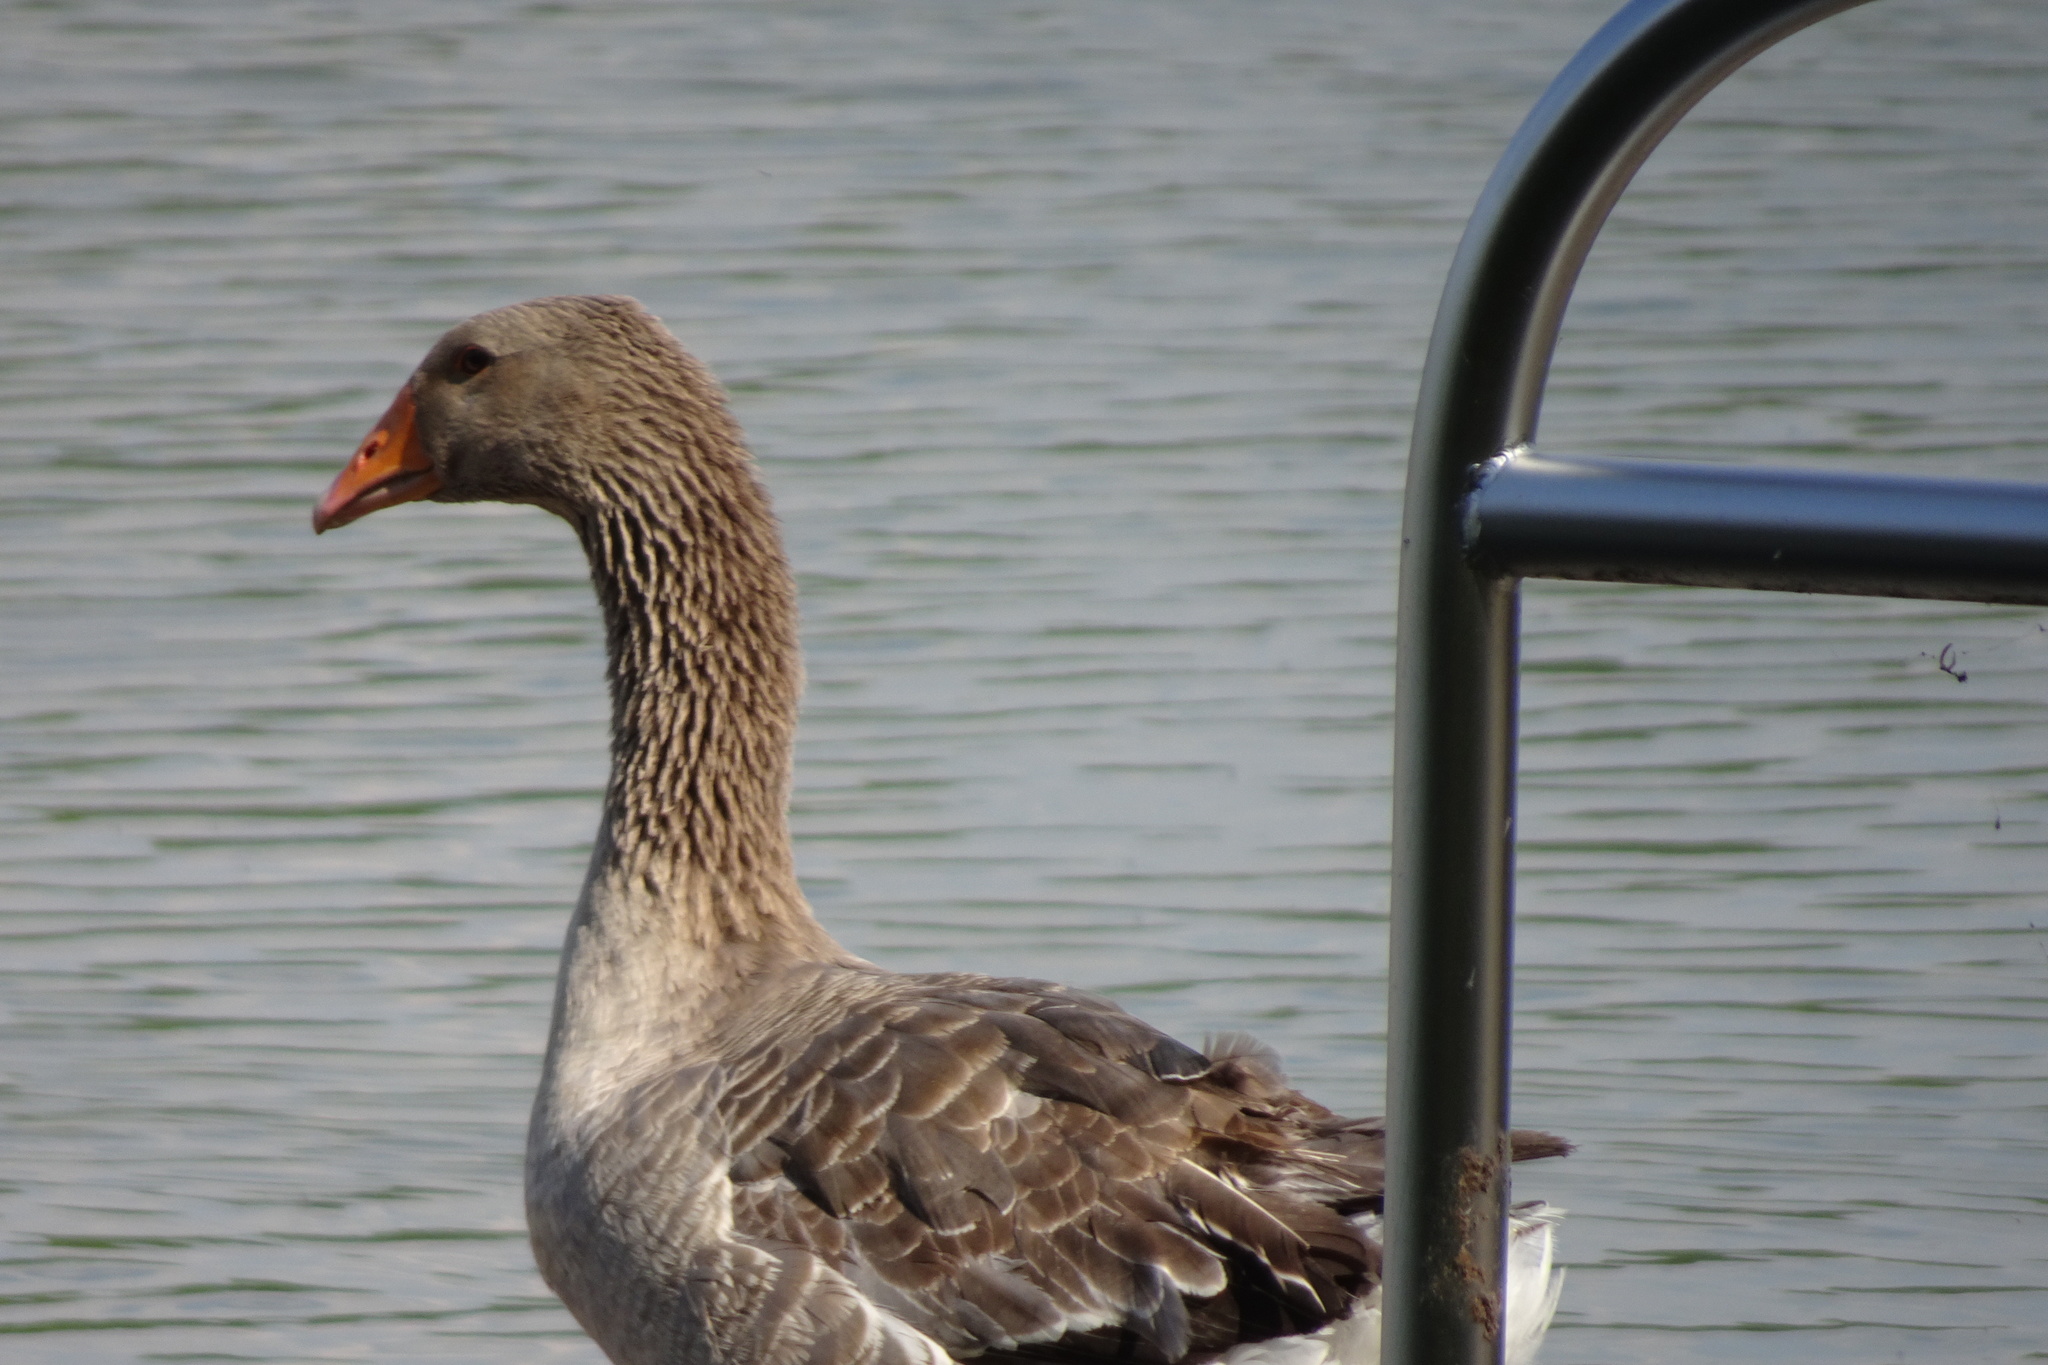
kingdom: Animalia
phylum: Chordata
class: Aves
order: Anseriformes
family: Anatidae
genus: Anser
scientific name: Anser anser
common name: Greylag goose
